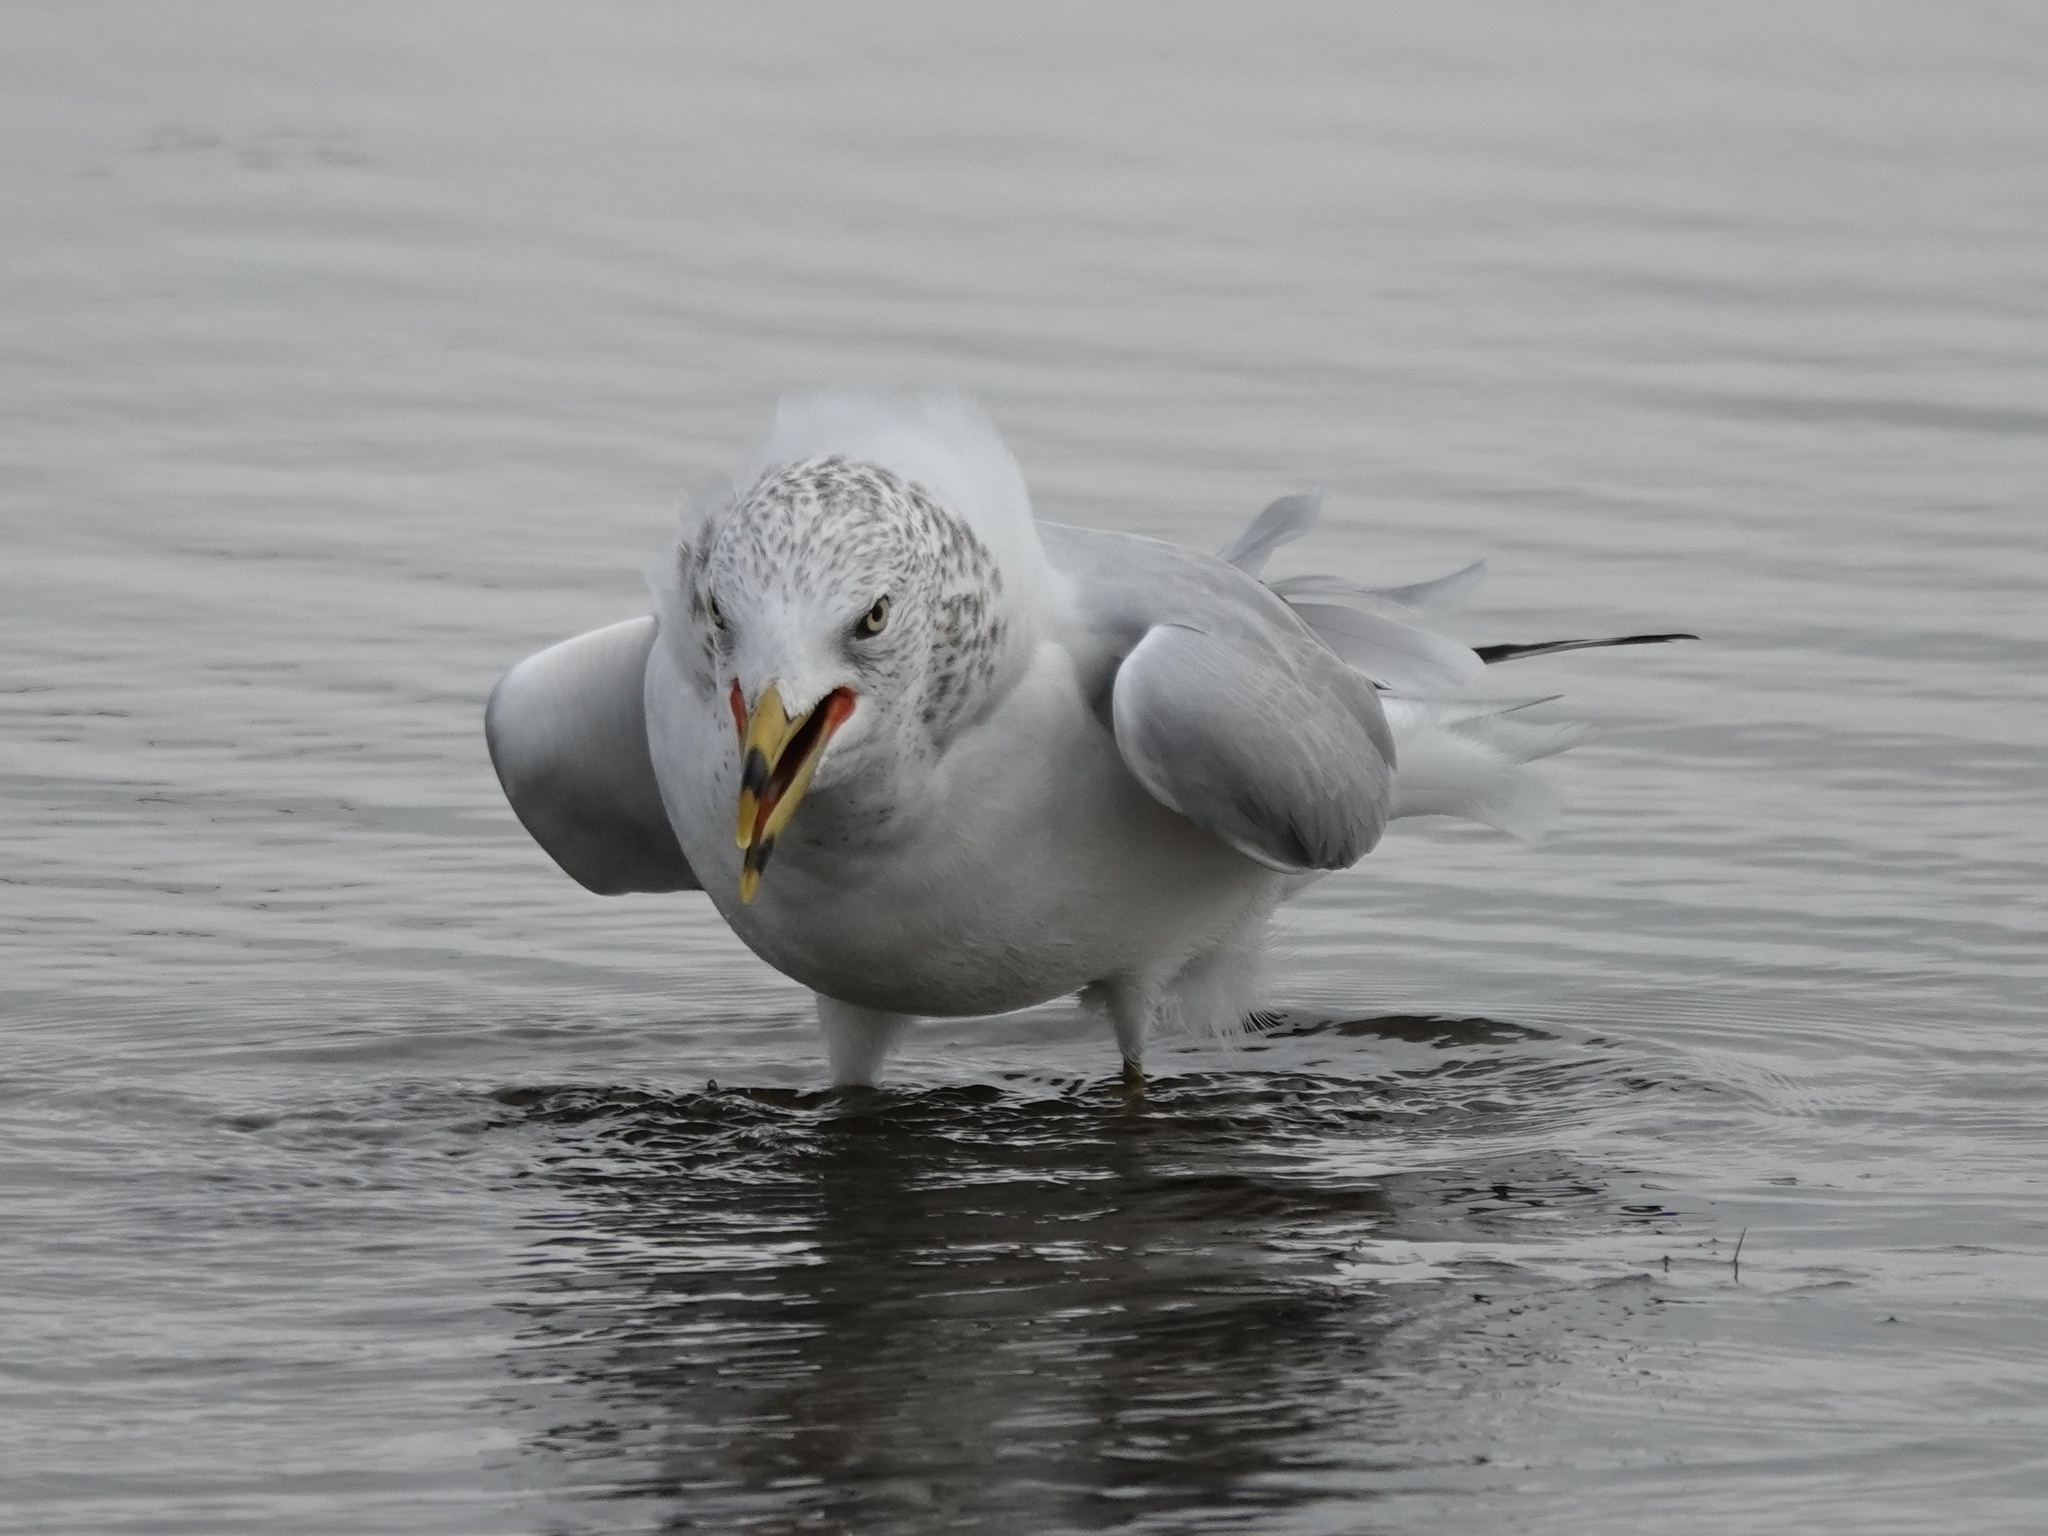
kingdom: Animalia
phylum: Chordata
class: Aves
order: Charadriiformes
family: Laridae
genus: Larus
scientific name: Larus delawarensis
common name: Ring-billed gull
